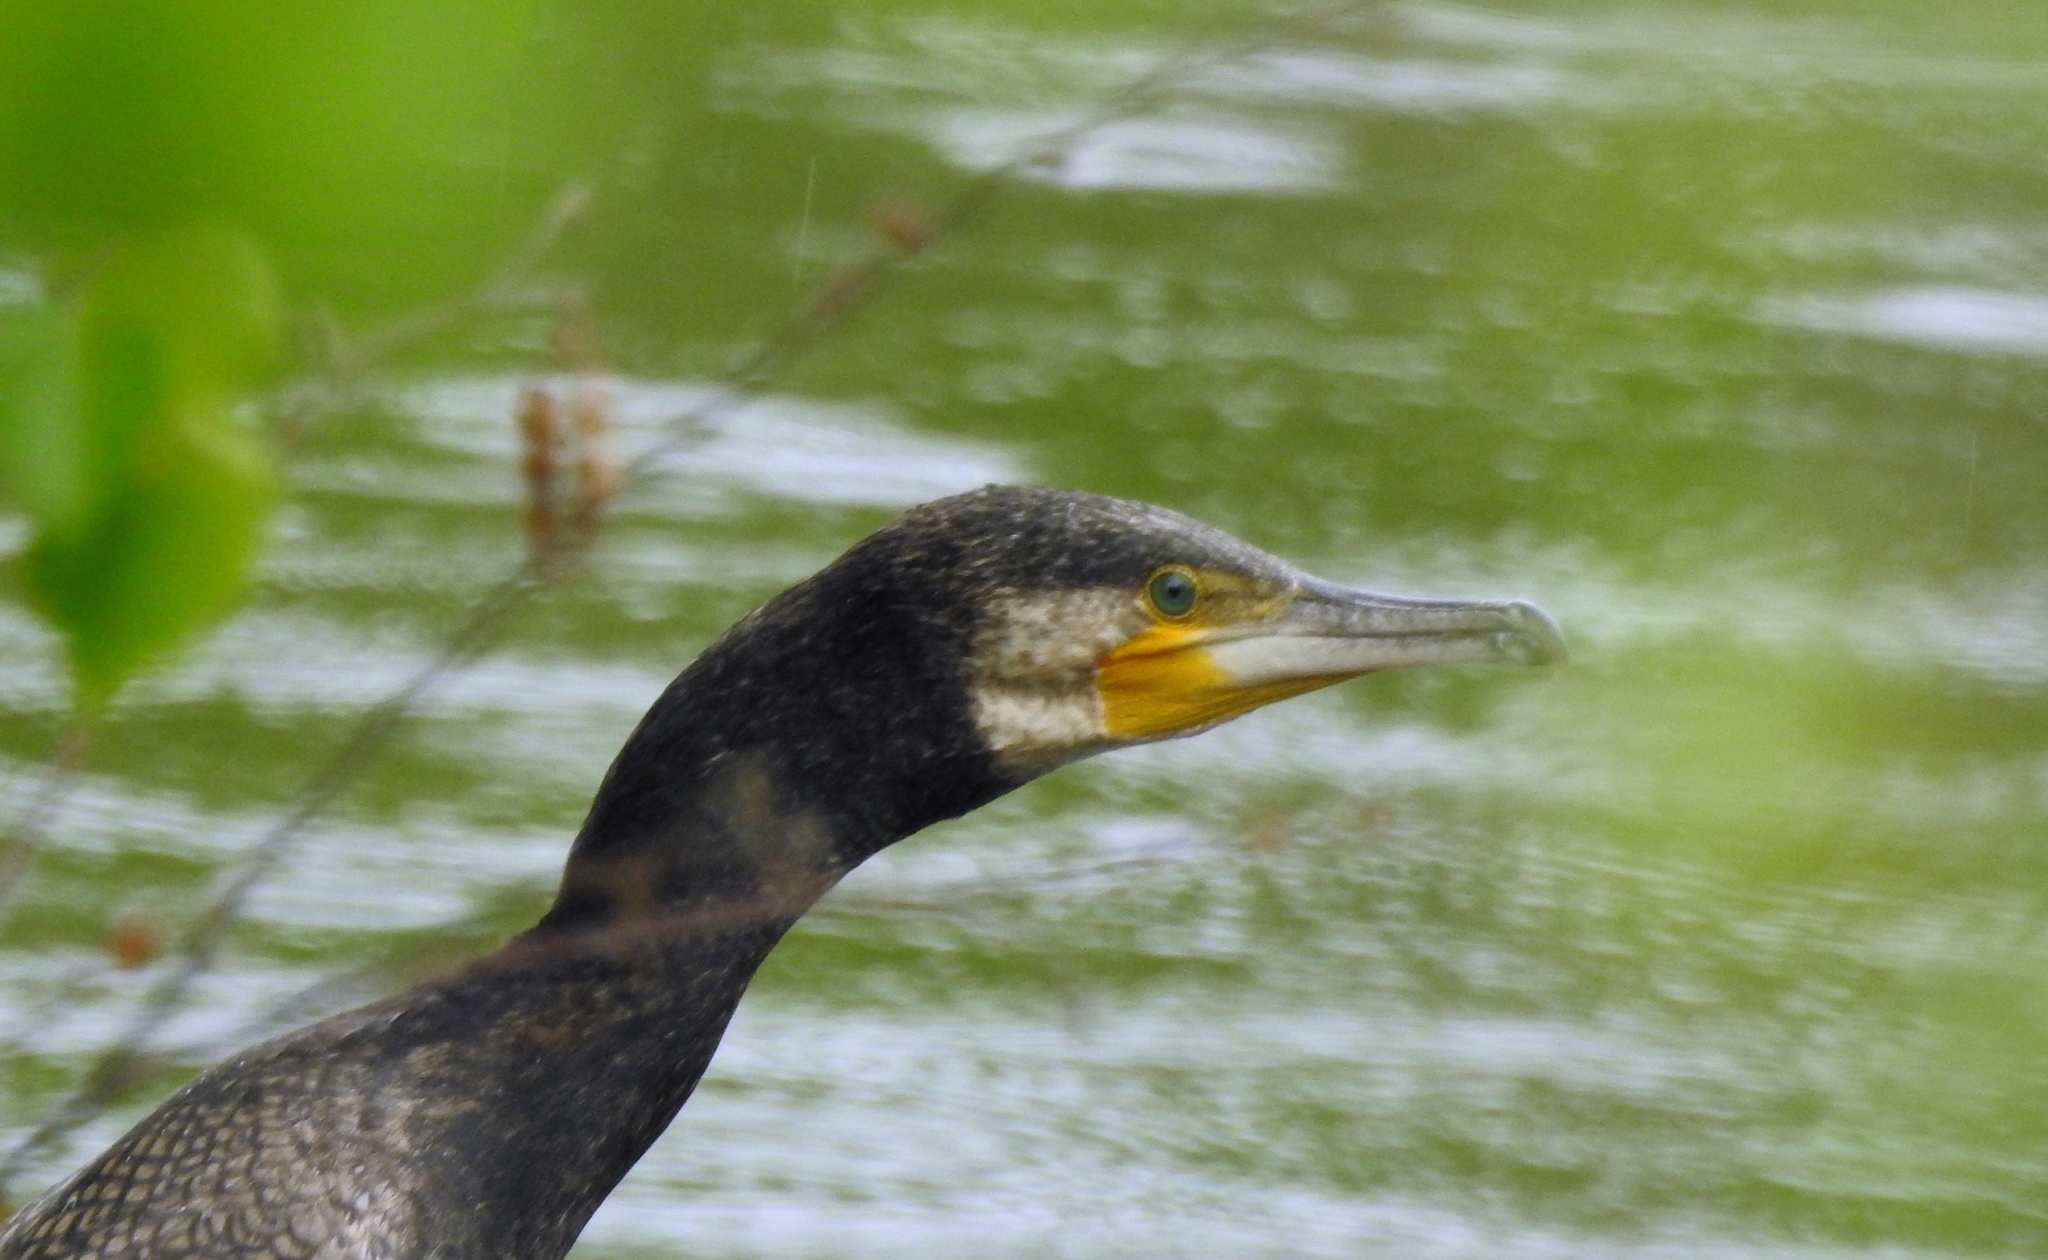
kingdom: Animalia
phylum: Chordata
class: Aves
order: Suliformes
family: Phalacrocoracidae
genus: Phalacrocorax
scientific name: Phalacrocorax carbo
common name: Great cormorant
